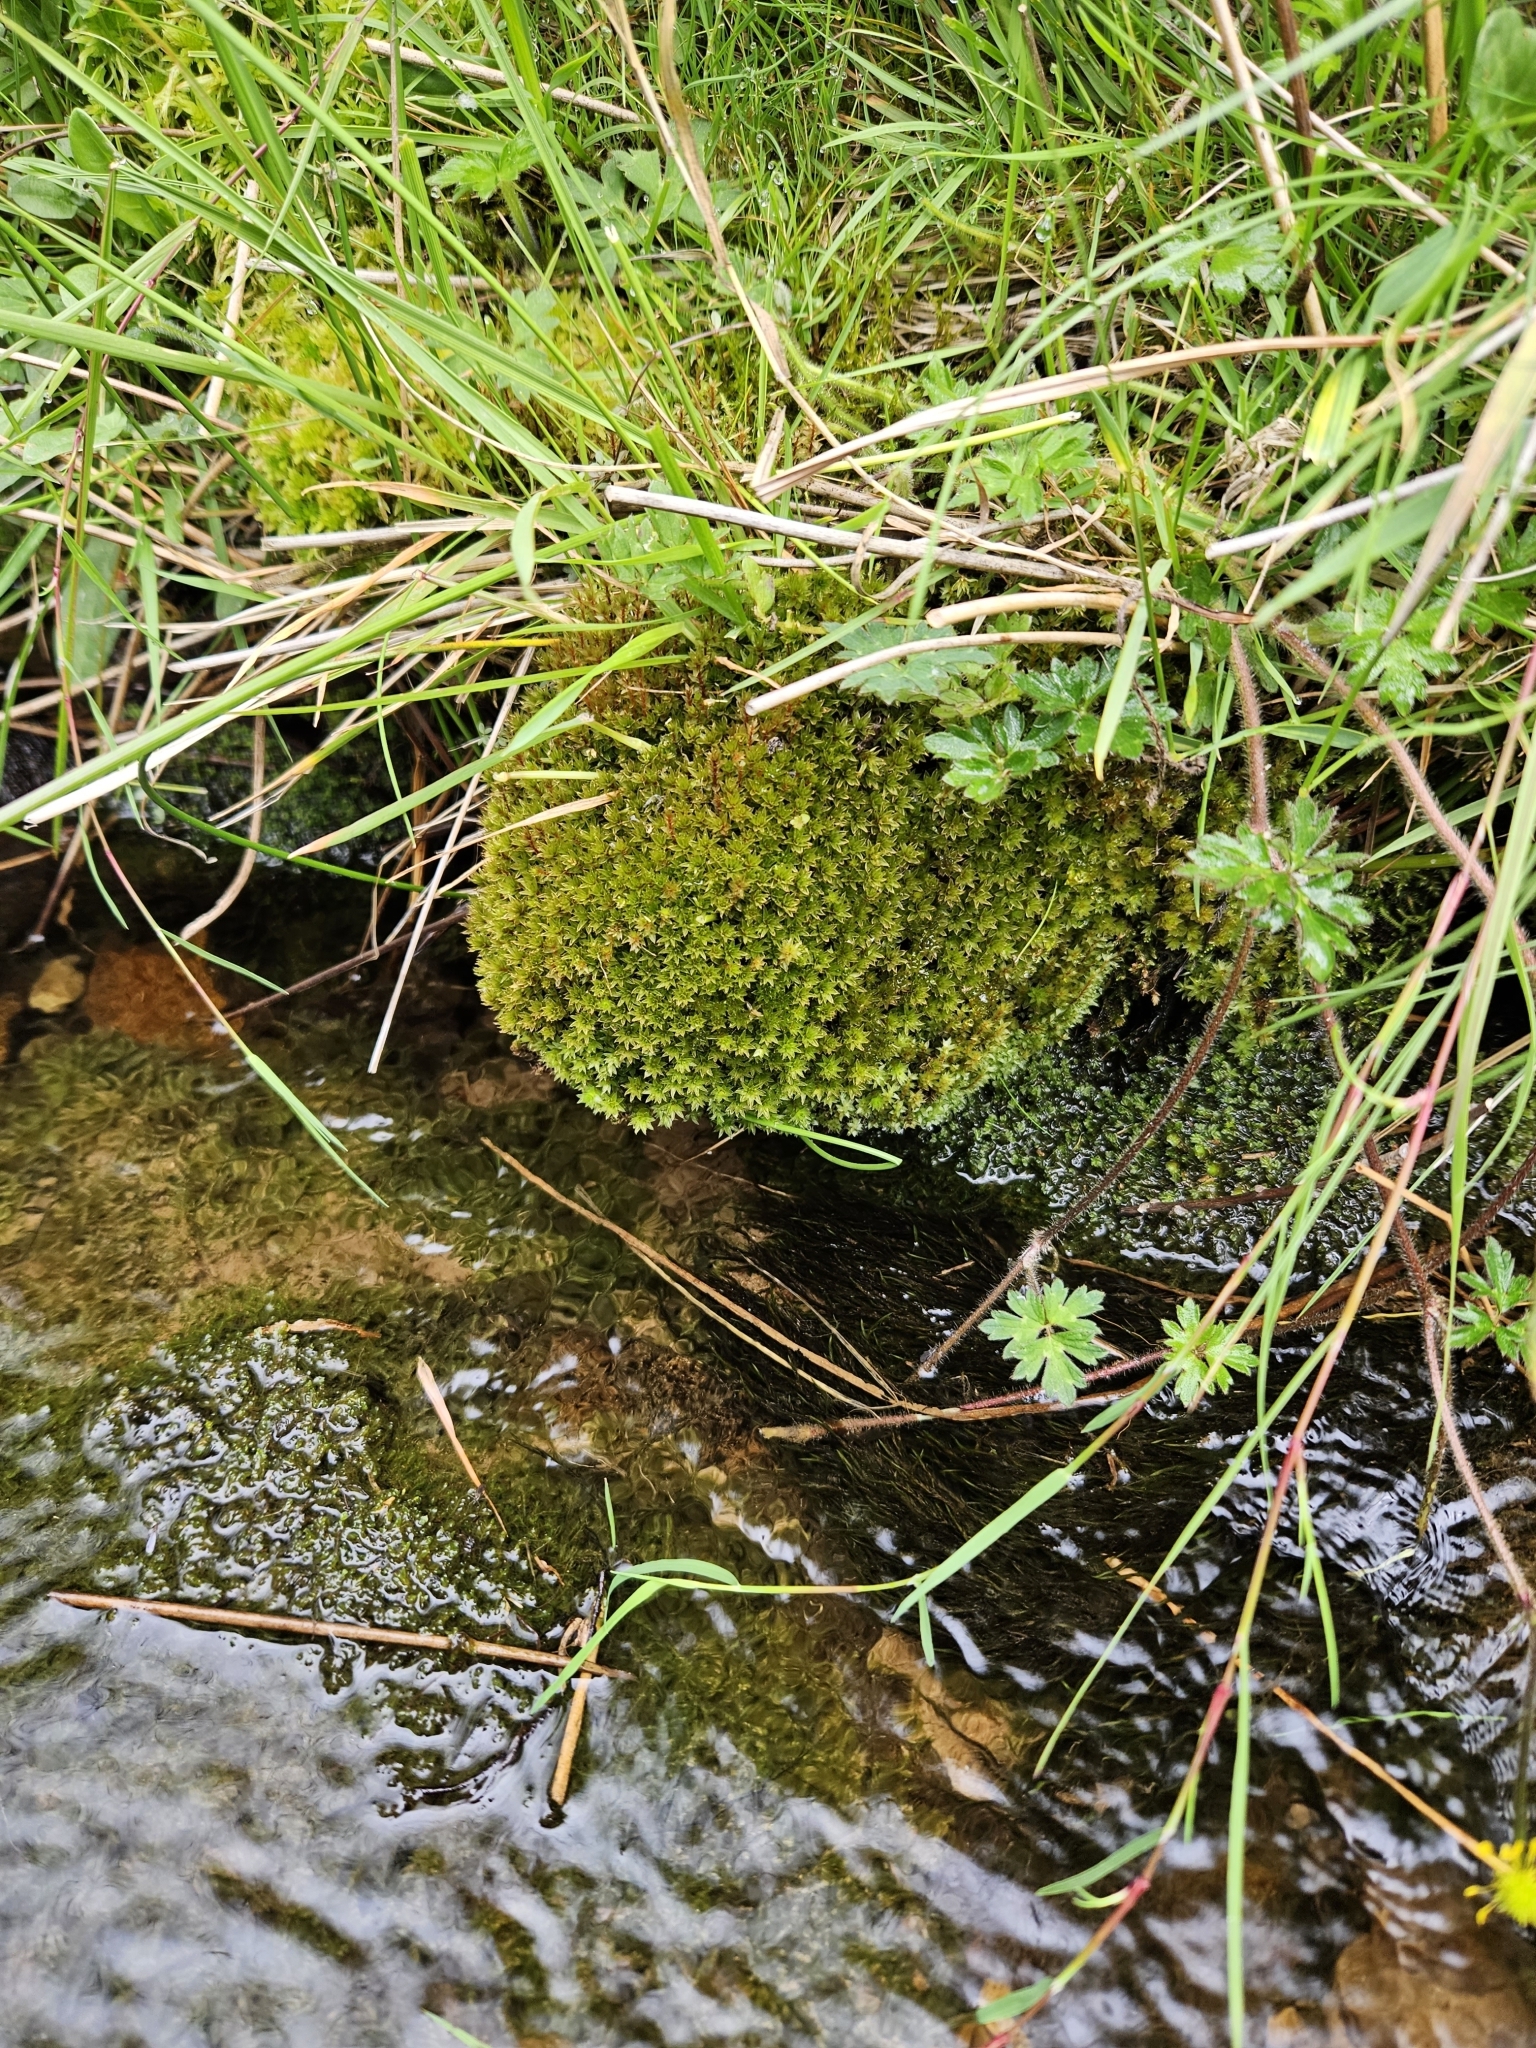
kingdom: Plantae
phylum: Bryophyta
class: Bryopsida
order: Bryales
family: Bryaceae
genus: Ptychostomum
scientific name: Ptychostomum pseudotriquetrum
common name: Long-leaved thread moss
